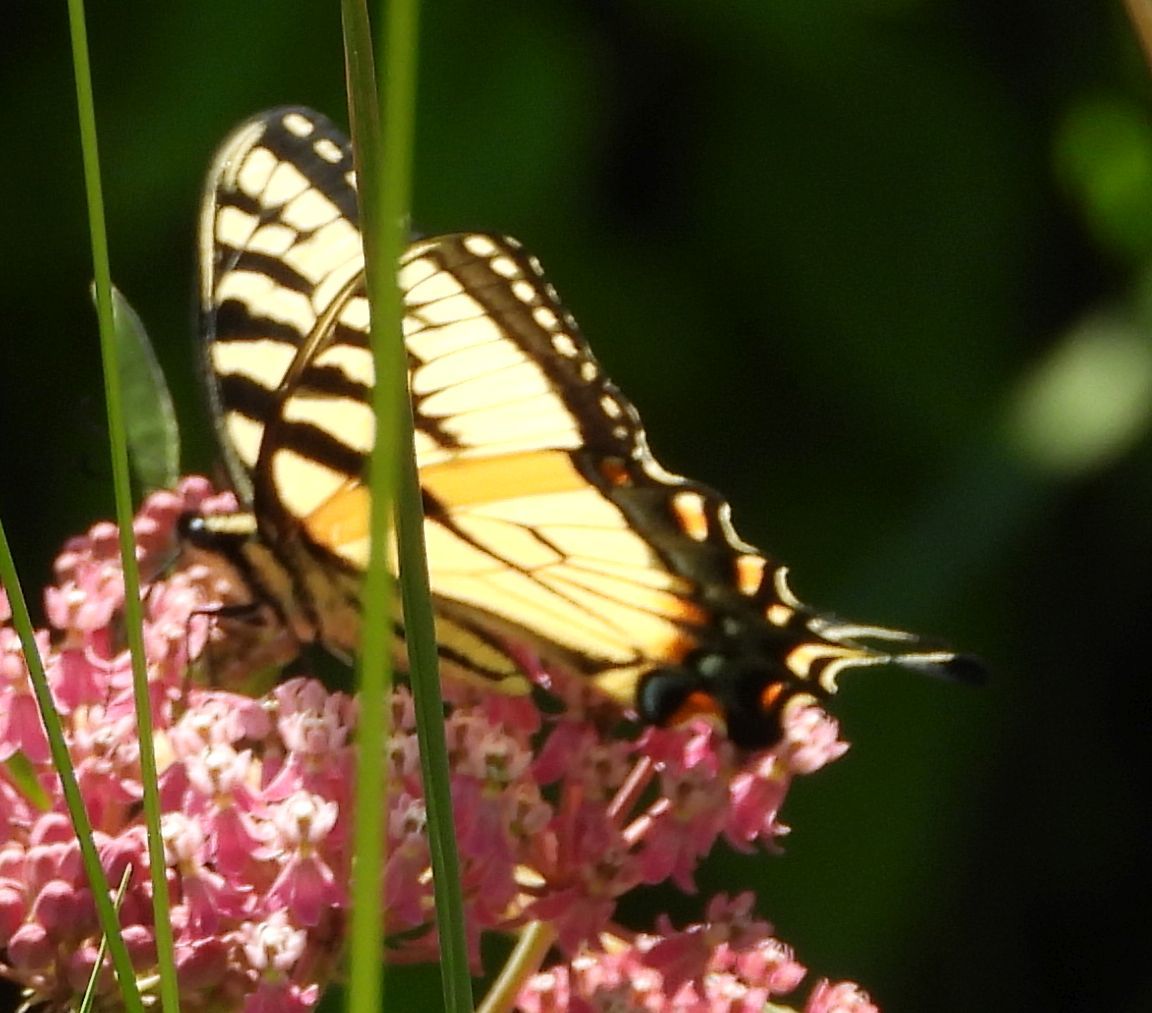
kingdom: Animalia
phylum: Arthropoda
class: Insecta
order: Lepidoptera
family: Papilionidae
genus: Papilio
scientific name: Papilio
